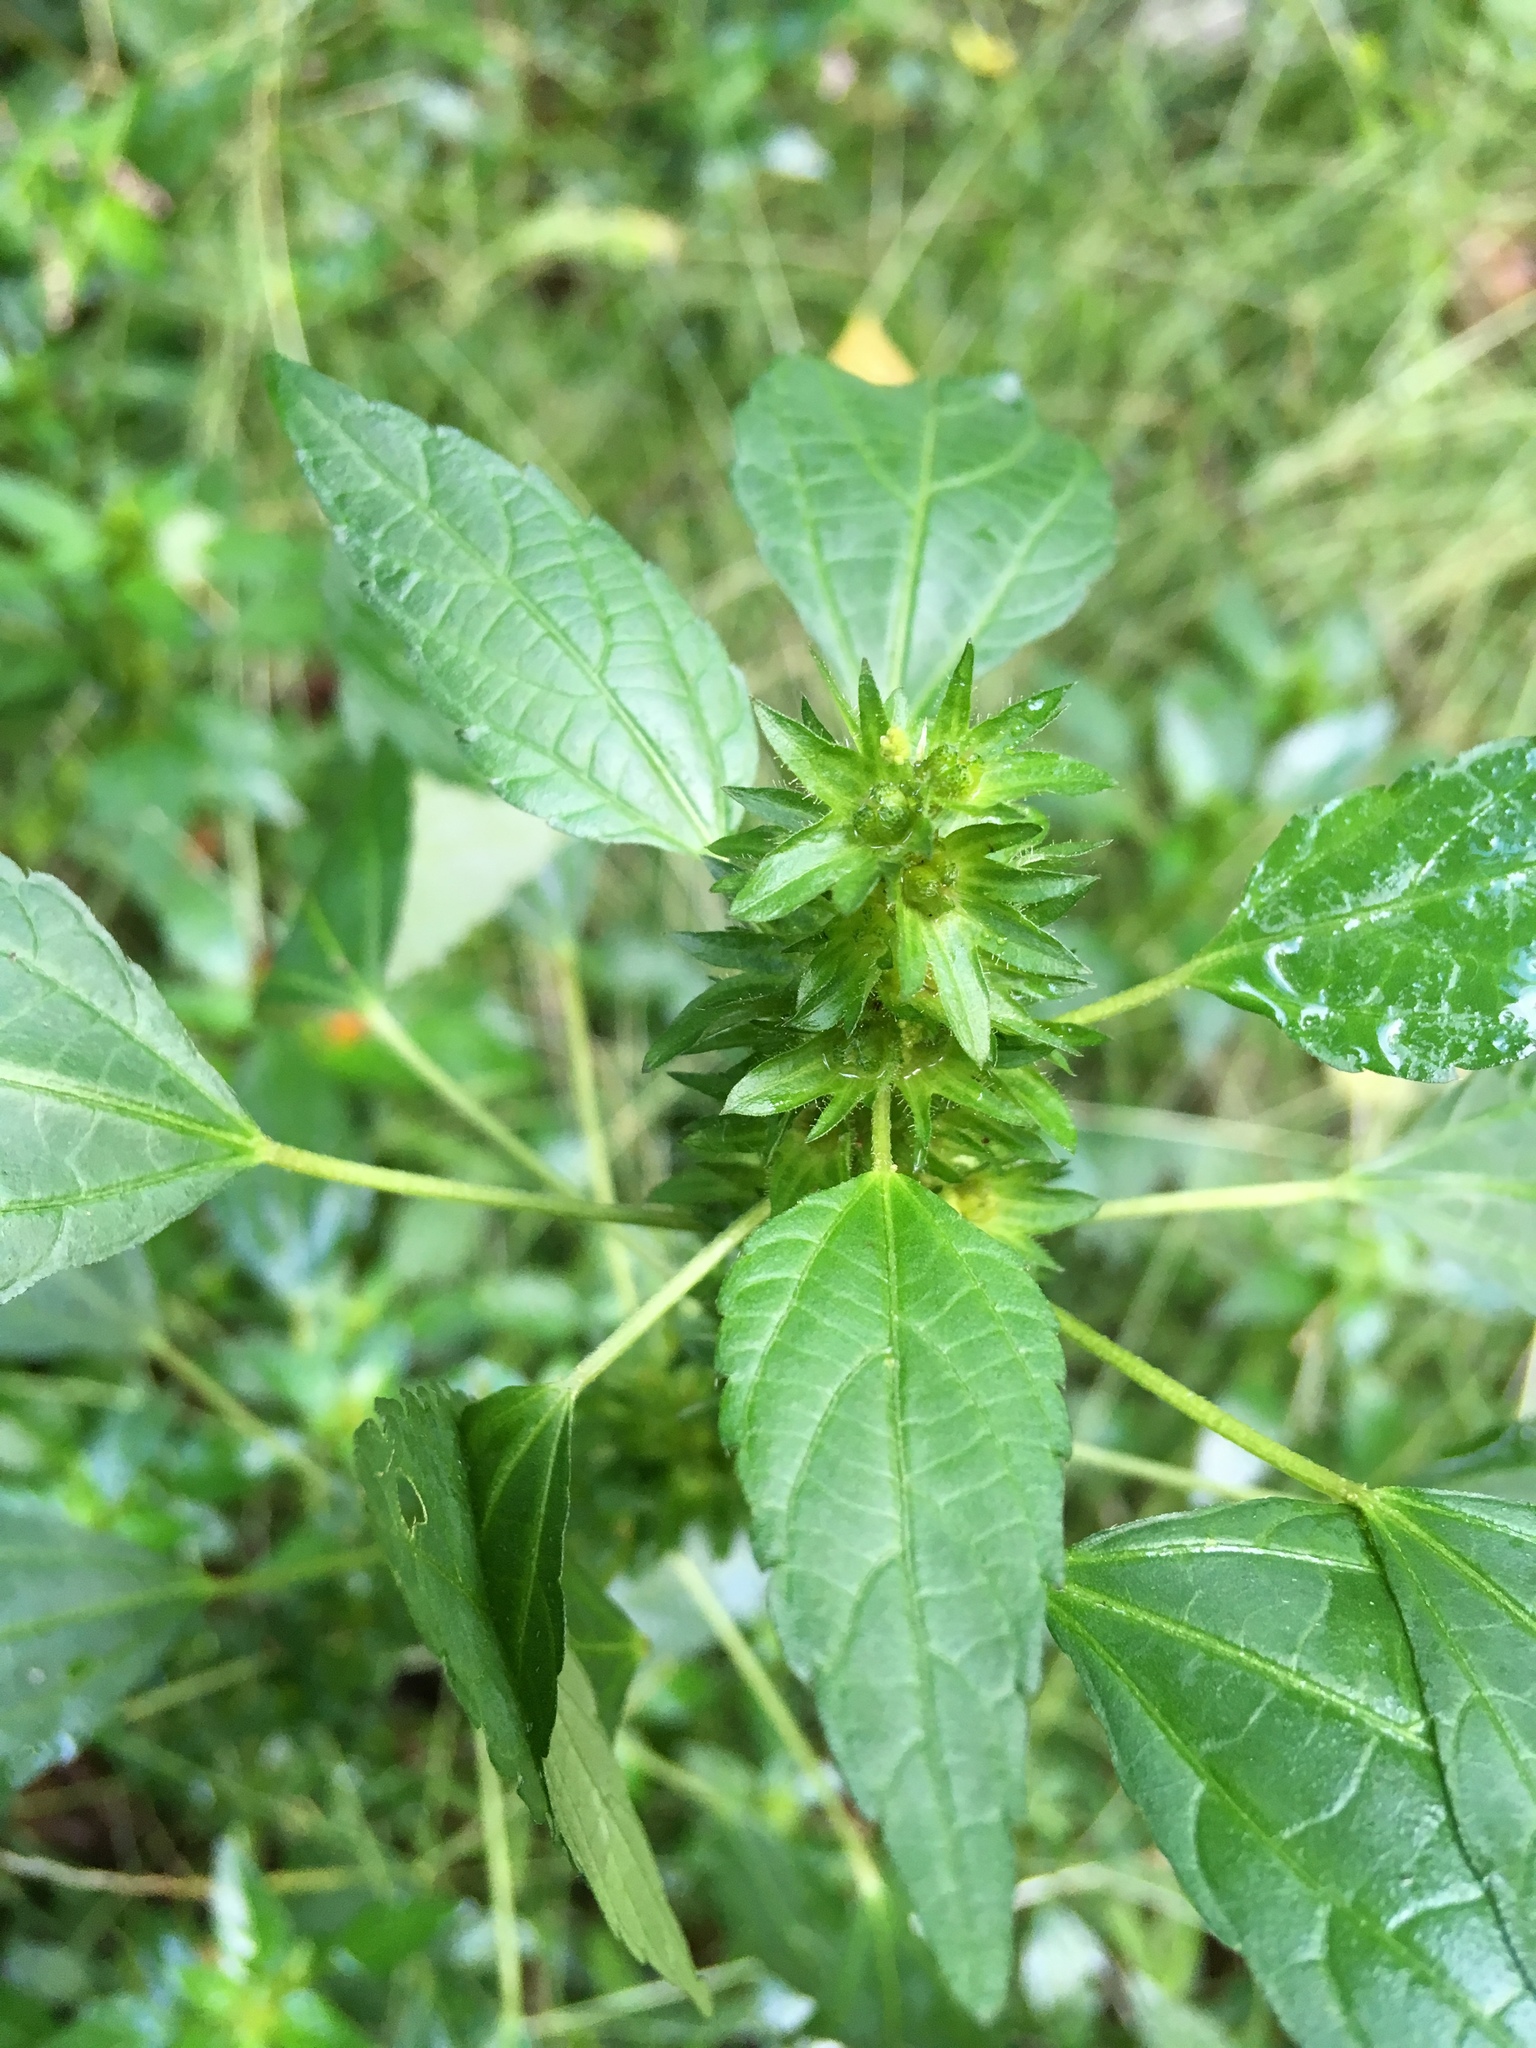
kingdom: Plantae
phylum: Tracheophyta
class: Magnoliopsida
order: Malpighiales
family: Euphorbiaceae
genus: Acalypha
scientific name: Acalypha rhomboidea
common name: Rhombic copperleaf
